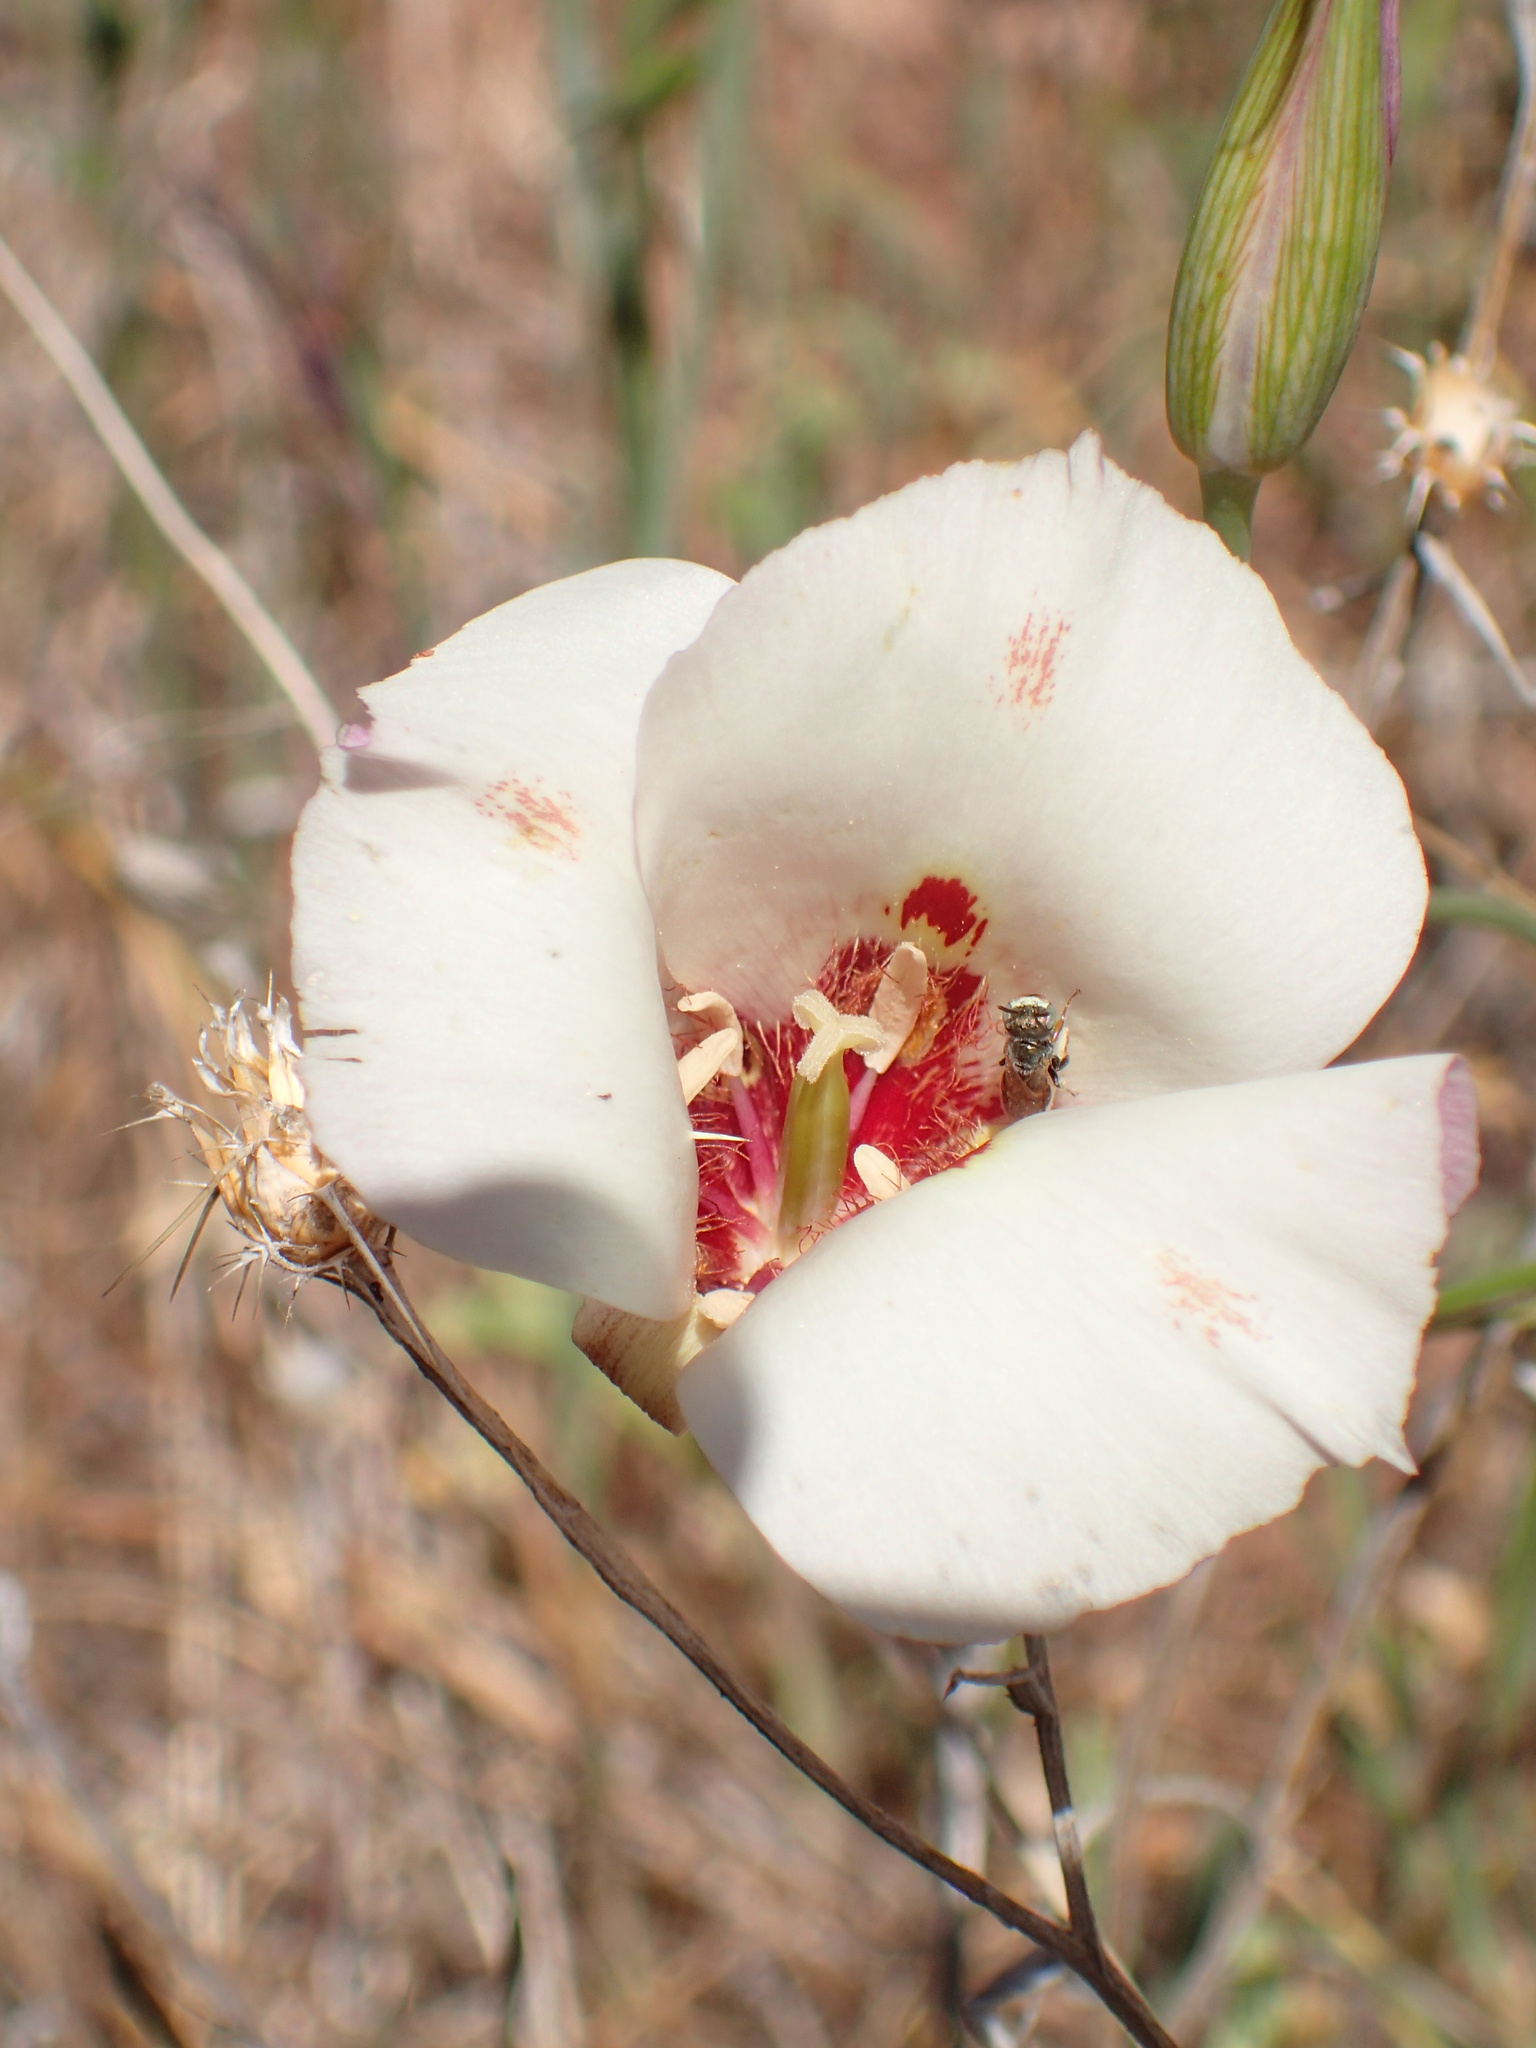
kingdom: Plantae
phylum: Tracheophyta
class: Liliopsida
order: Liliales
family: Liliaceae
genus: Calochortus
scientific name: Calochortus venustus
